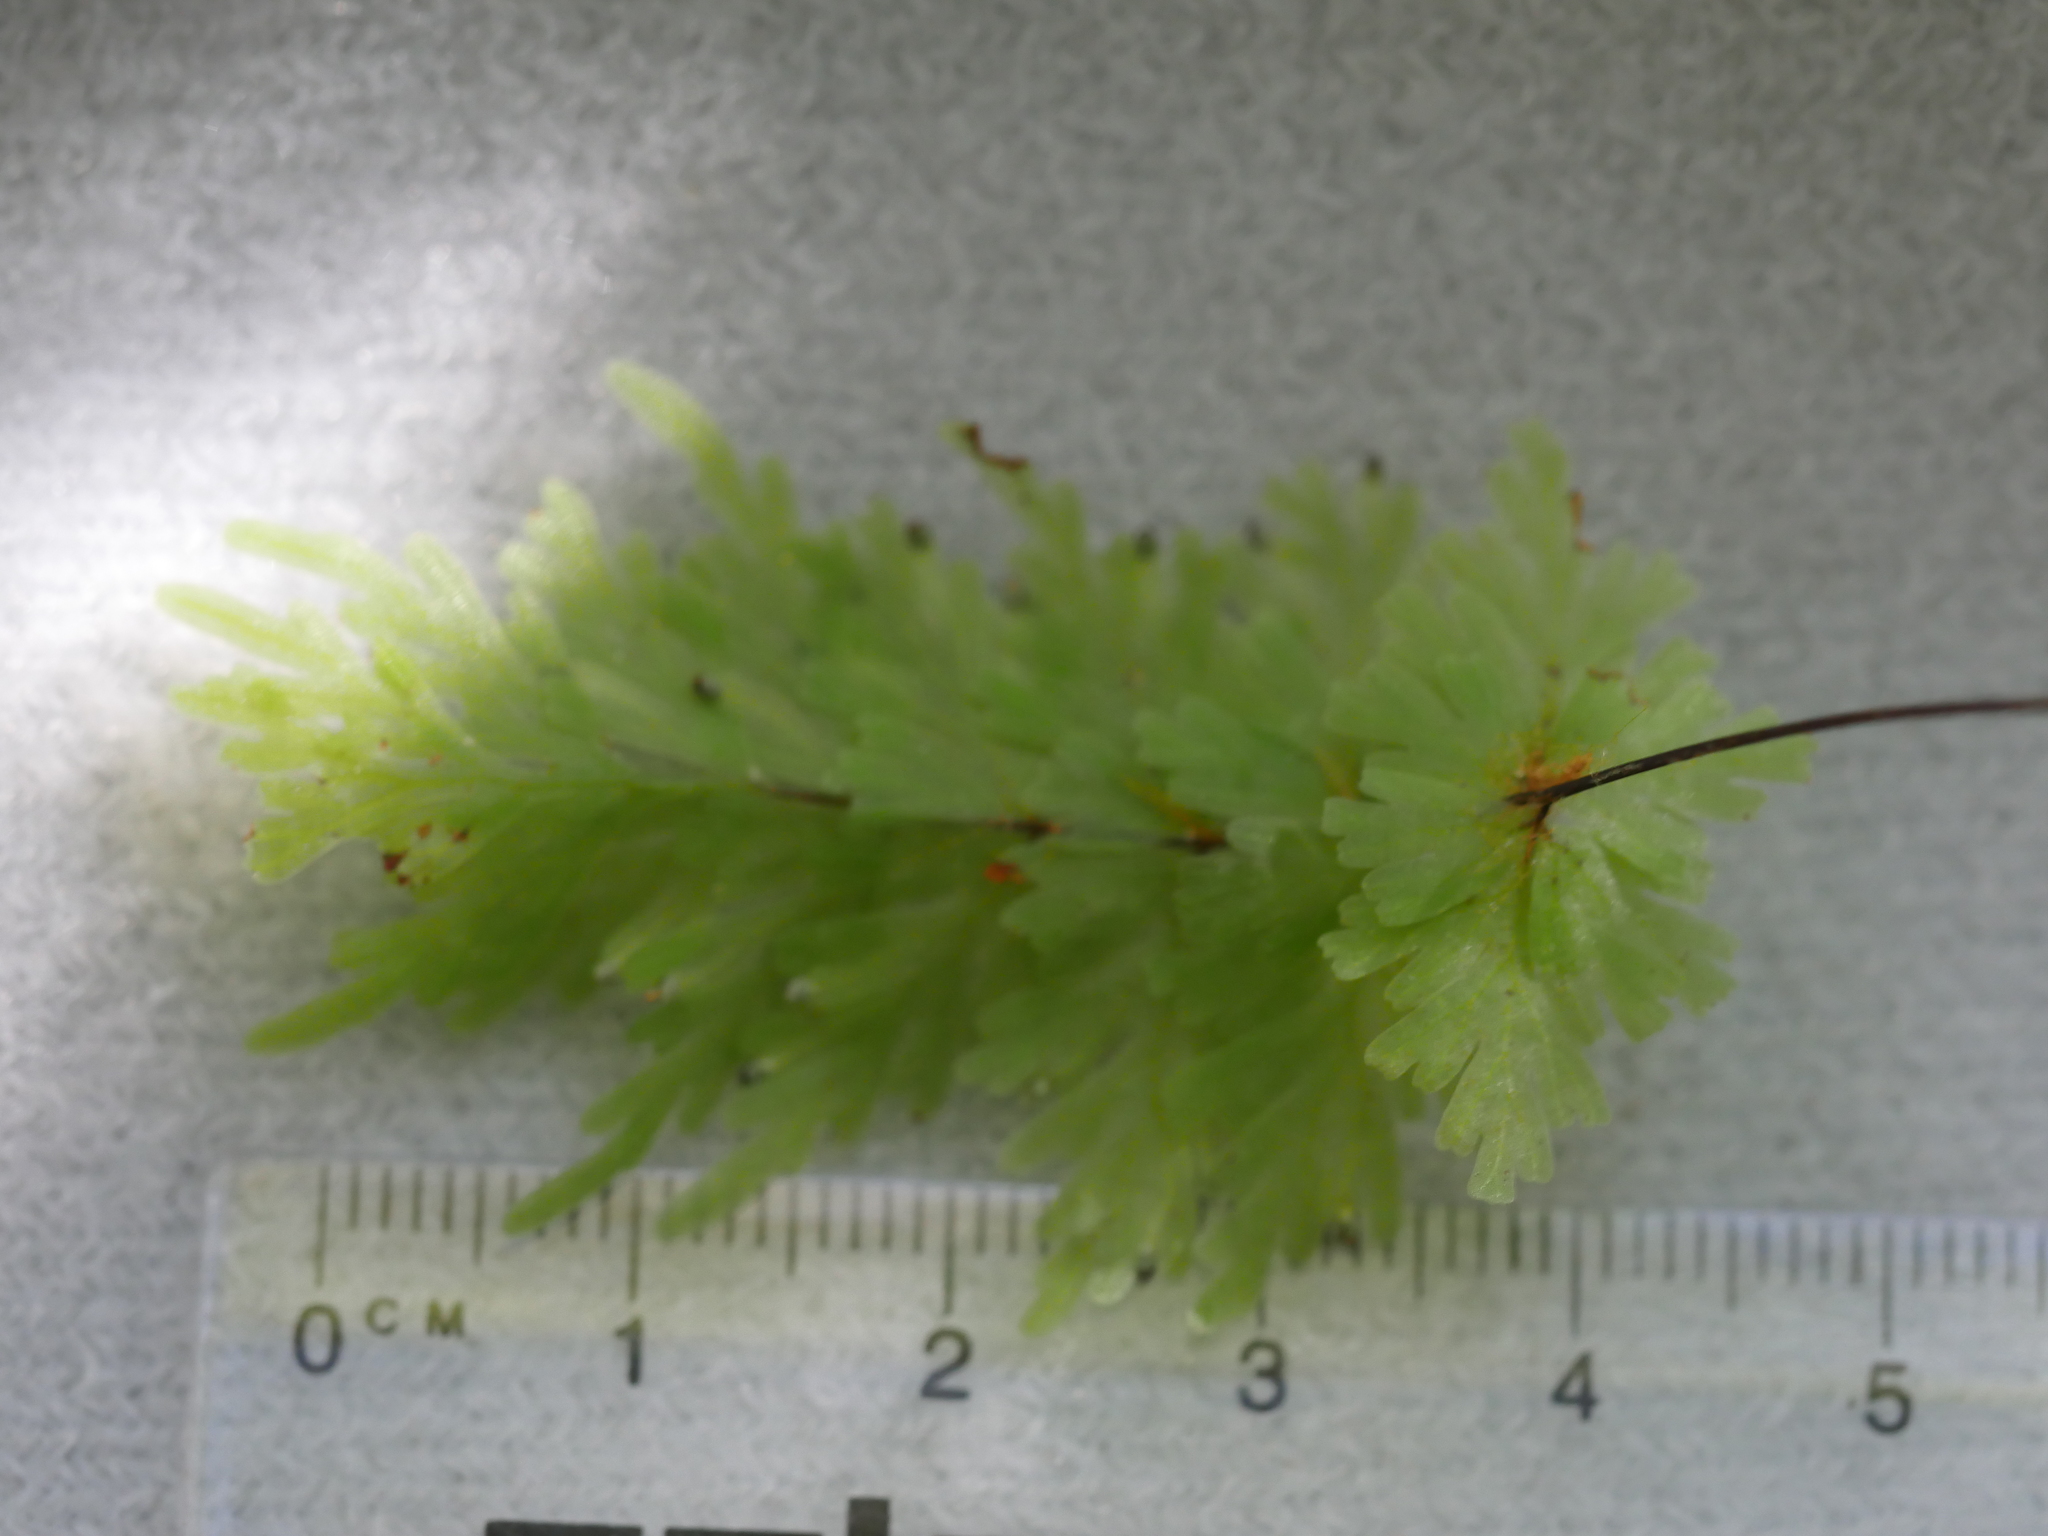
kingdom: Plantae
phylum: Tracheophyta
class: Polypodiopsida
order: Hymenophyllales
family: Hymenophyllaceae
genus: Hymenophyllum
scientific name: Hymenophyllum rarum
